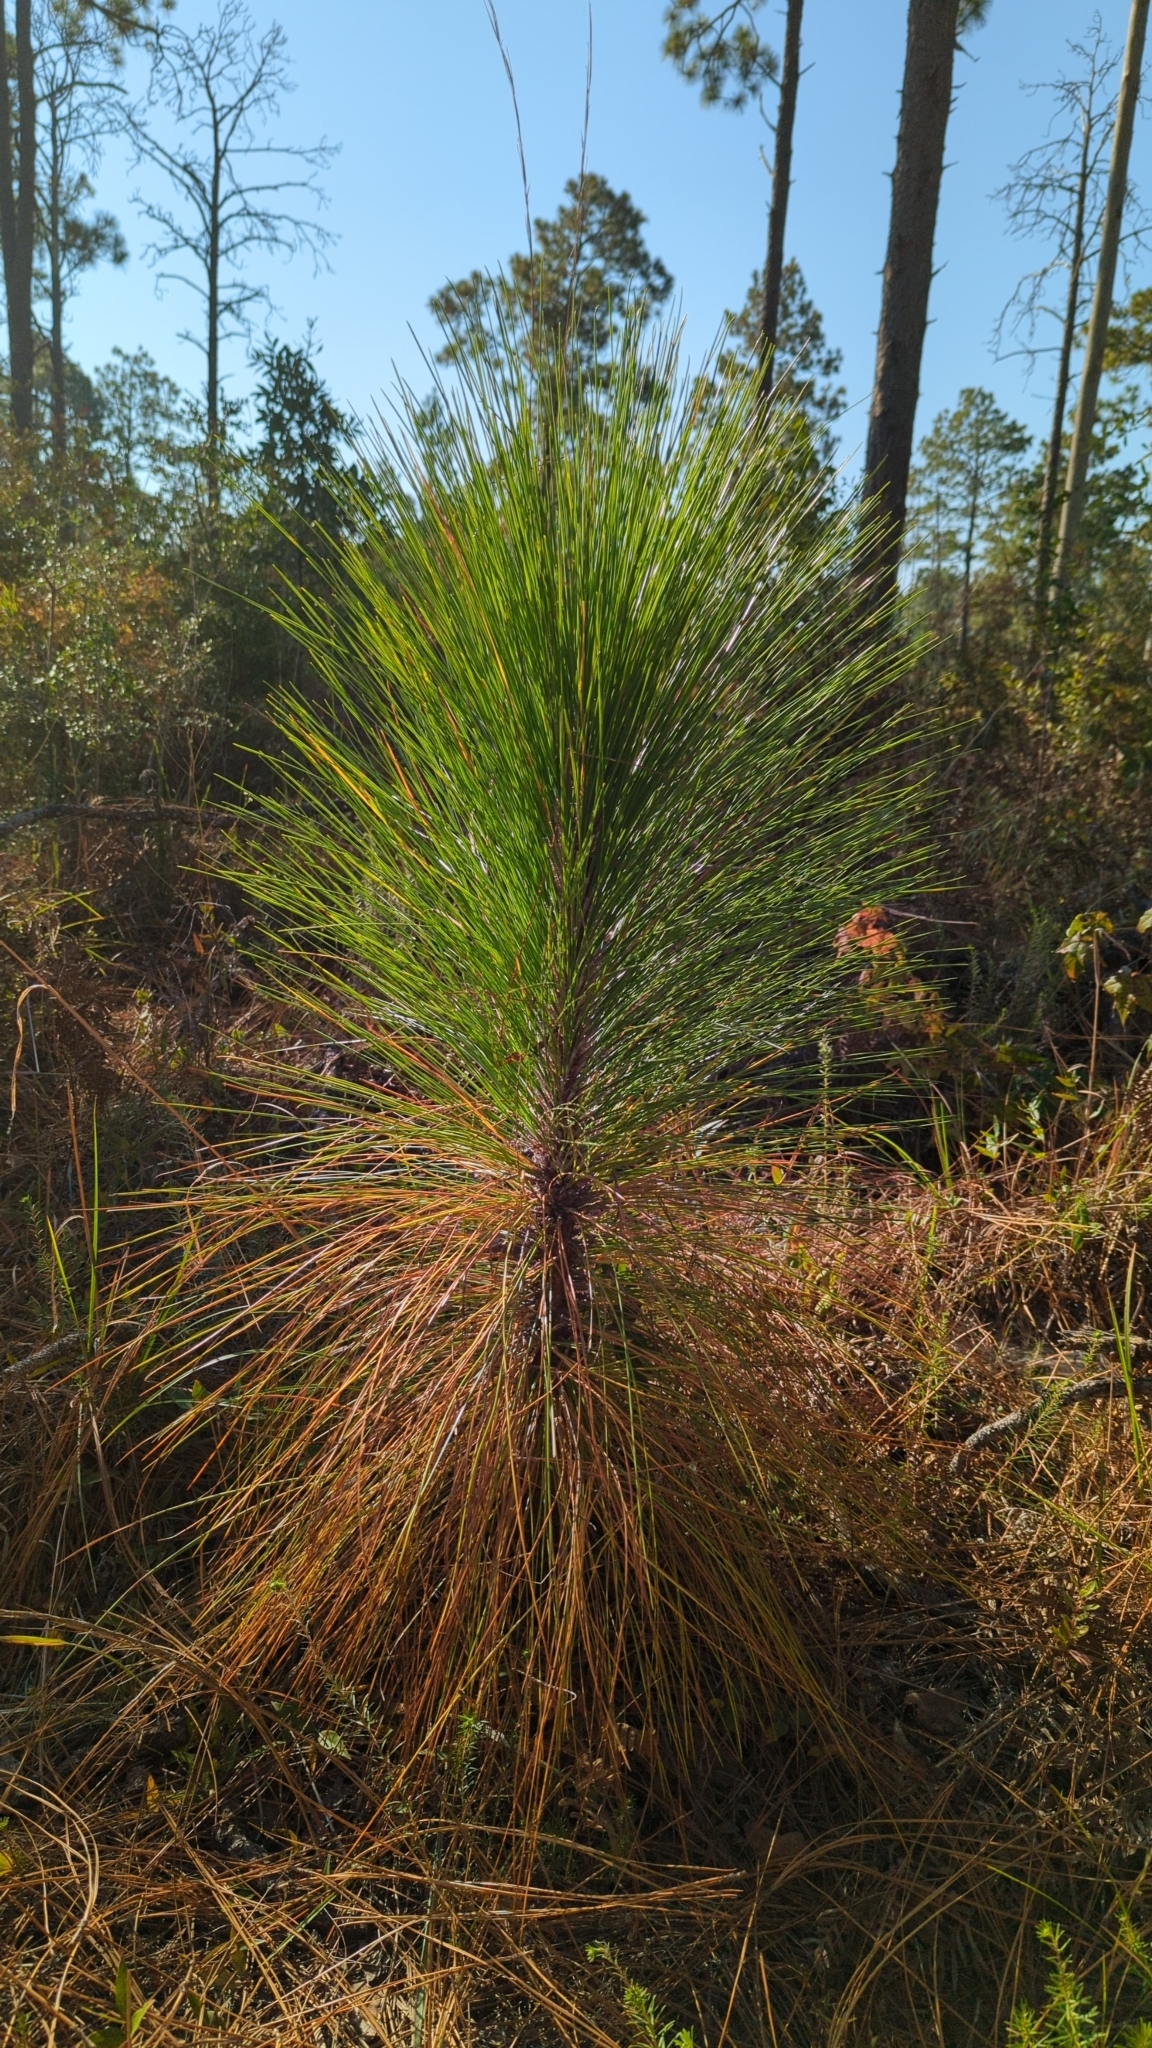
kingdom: Plantae
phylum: Tracheophyta
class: Pinopsida
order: Pinales
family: Pinaceae
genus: Pinus
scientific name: Pinus palustris
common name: Longleaf pine
